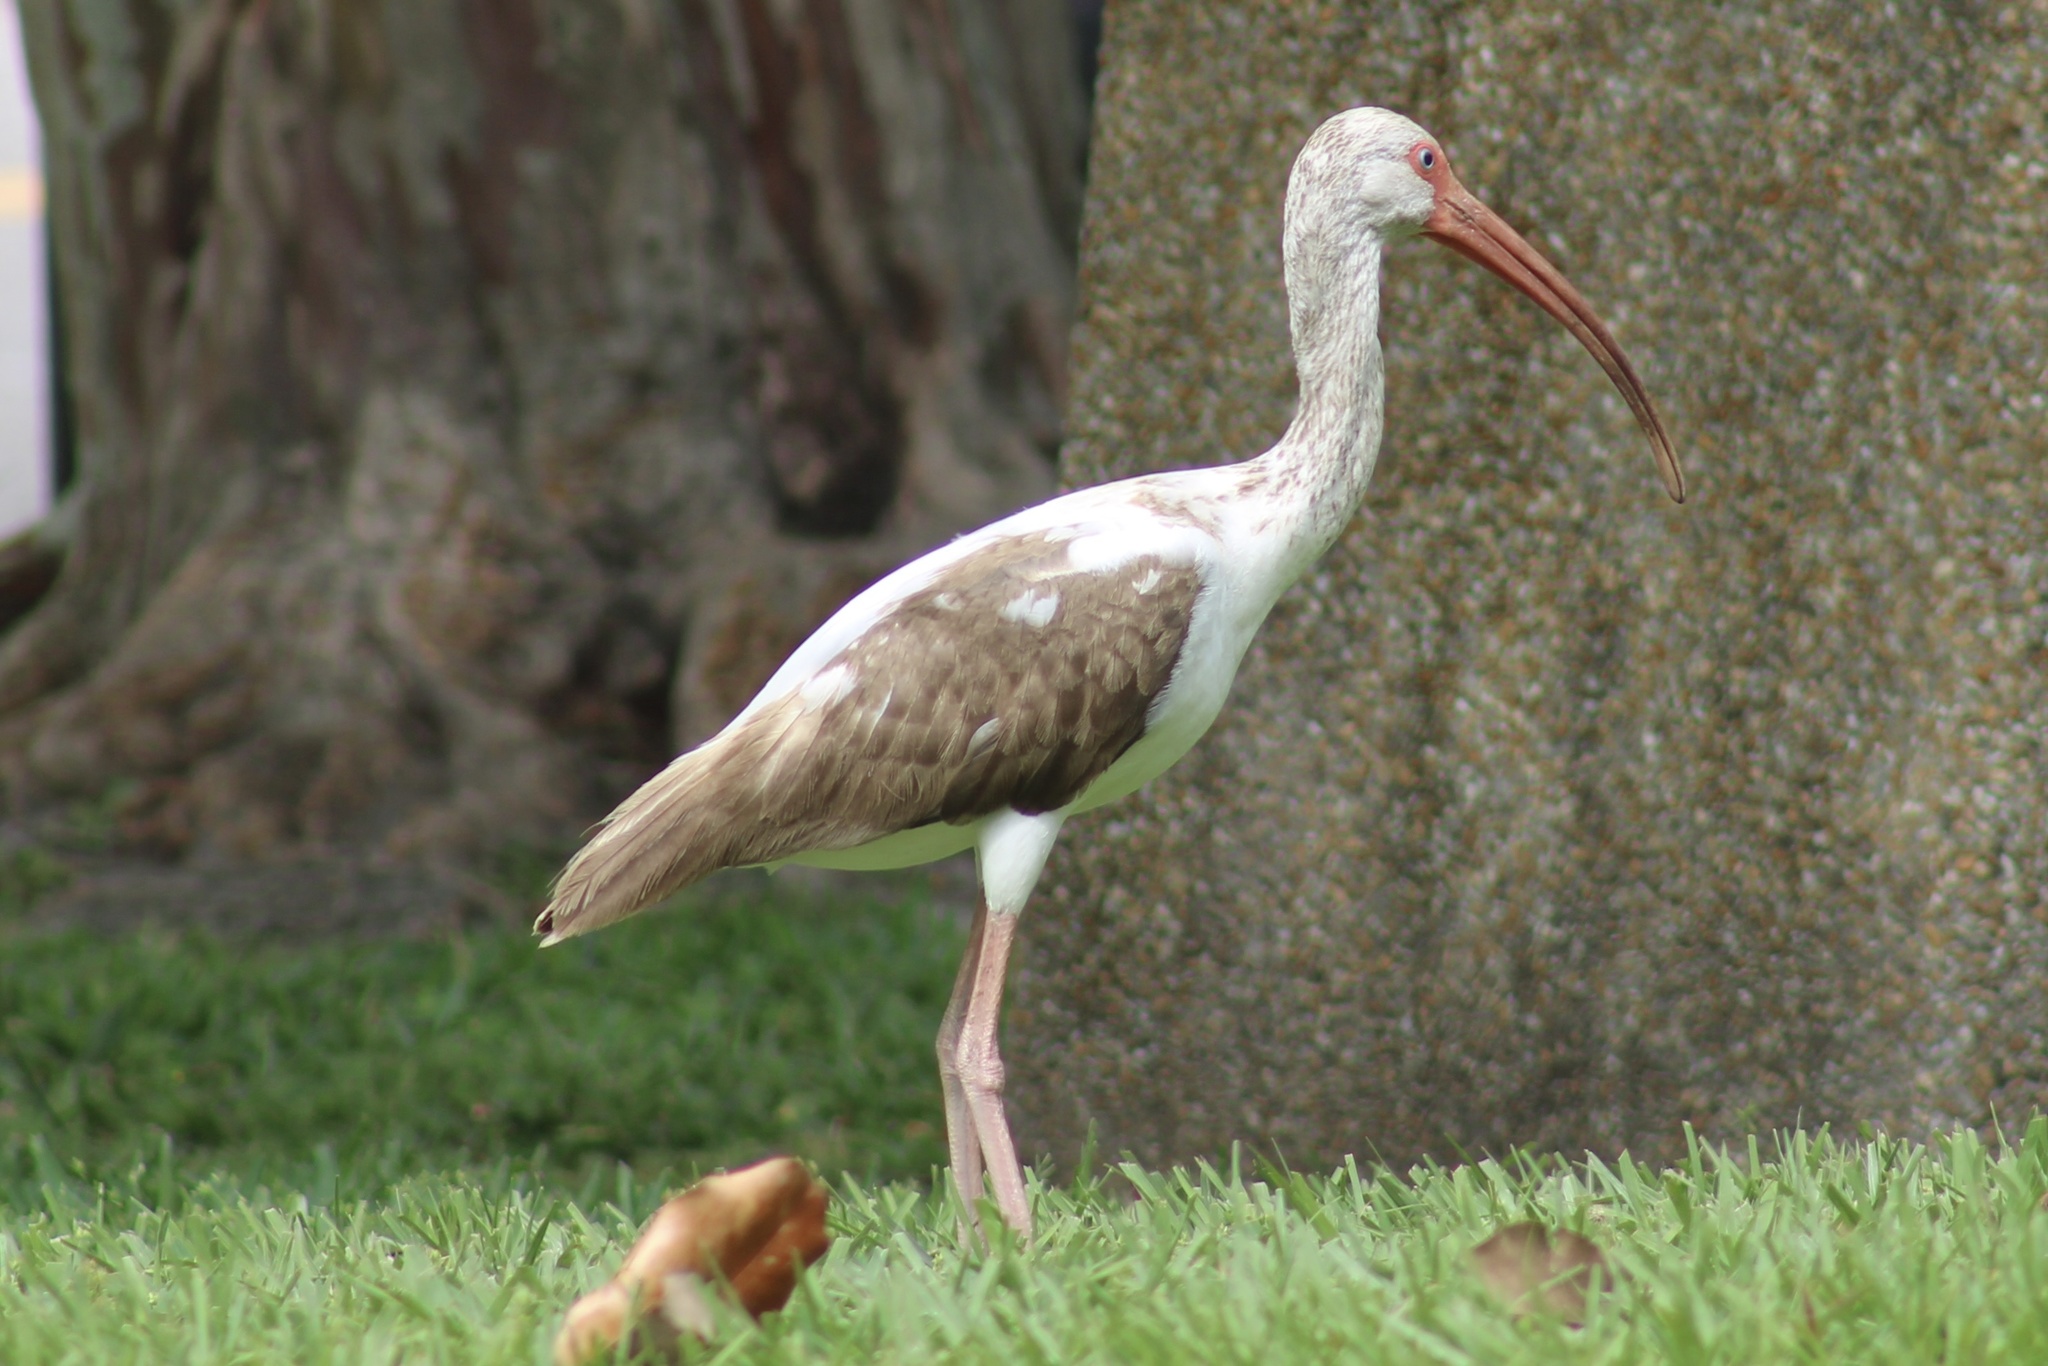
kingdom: Animalia
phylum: Chordata
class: Aves
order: Pelecaniformes
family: Threskiornithidae
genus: Eudocimus
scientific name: Eudocimus albus
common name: White ibis
